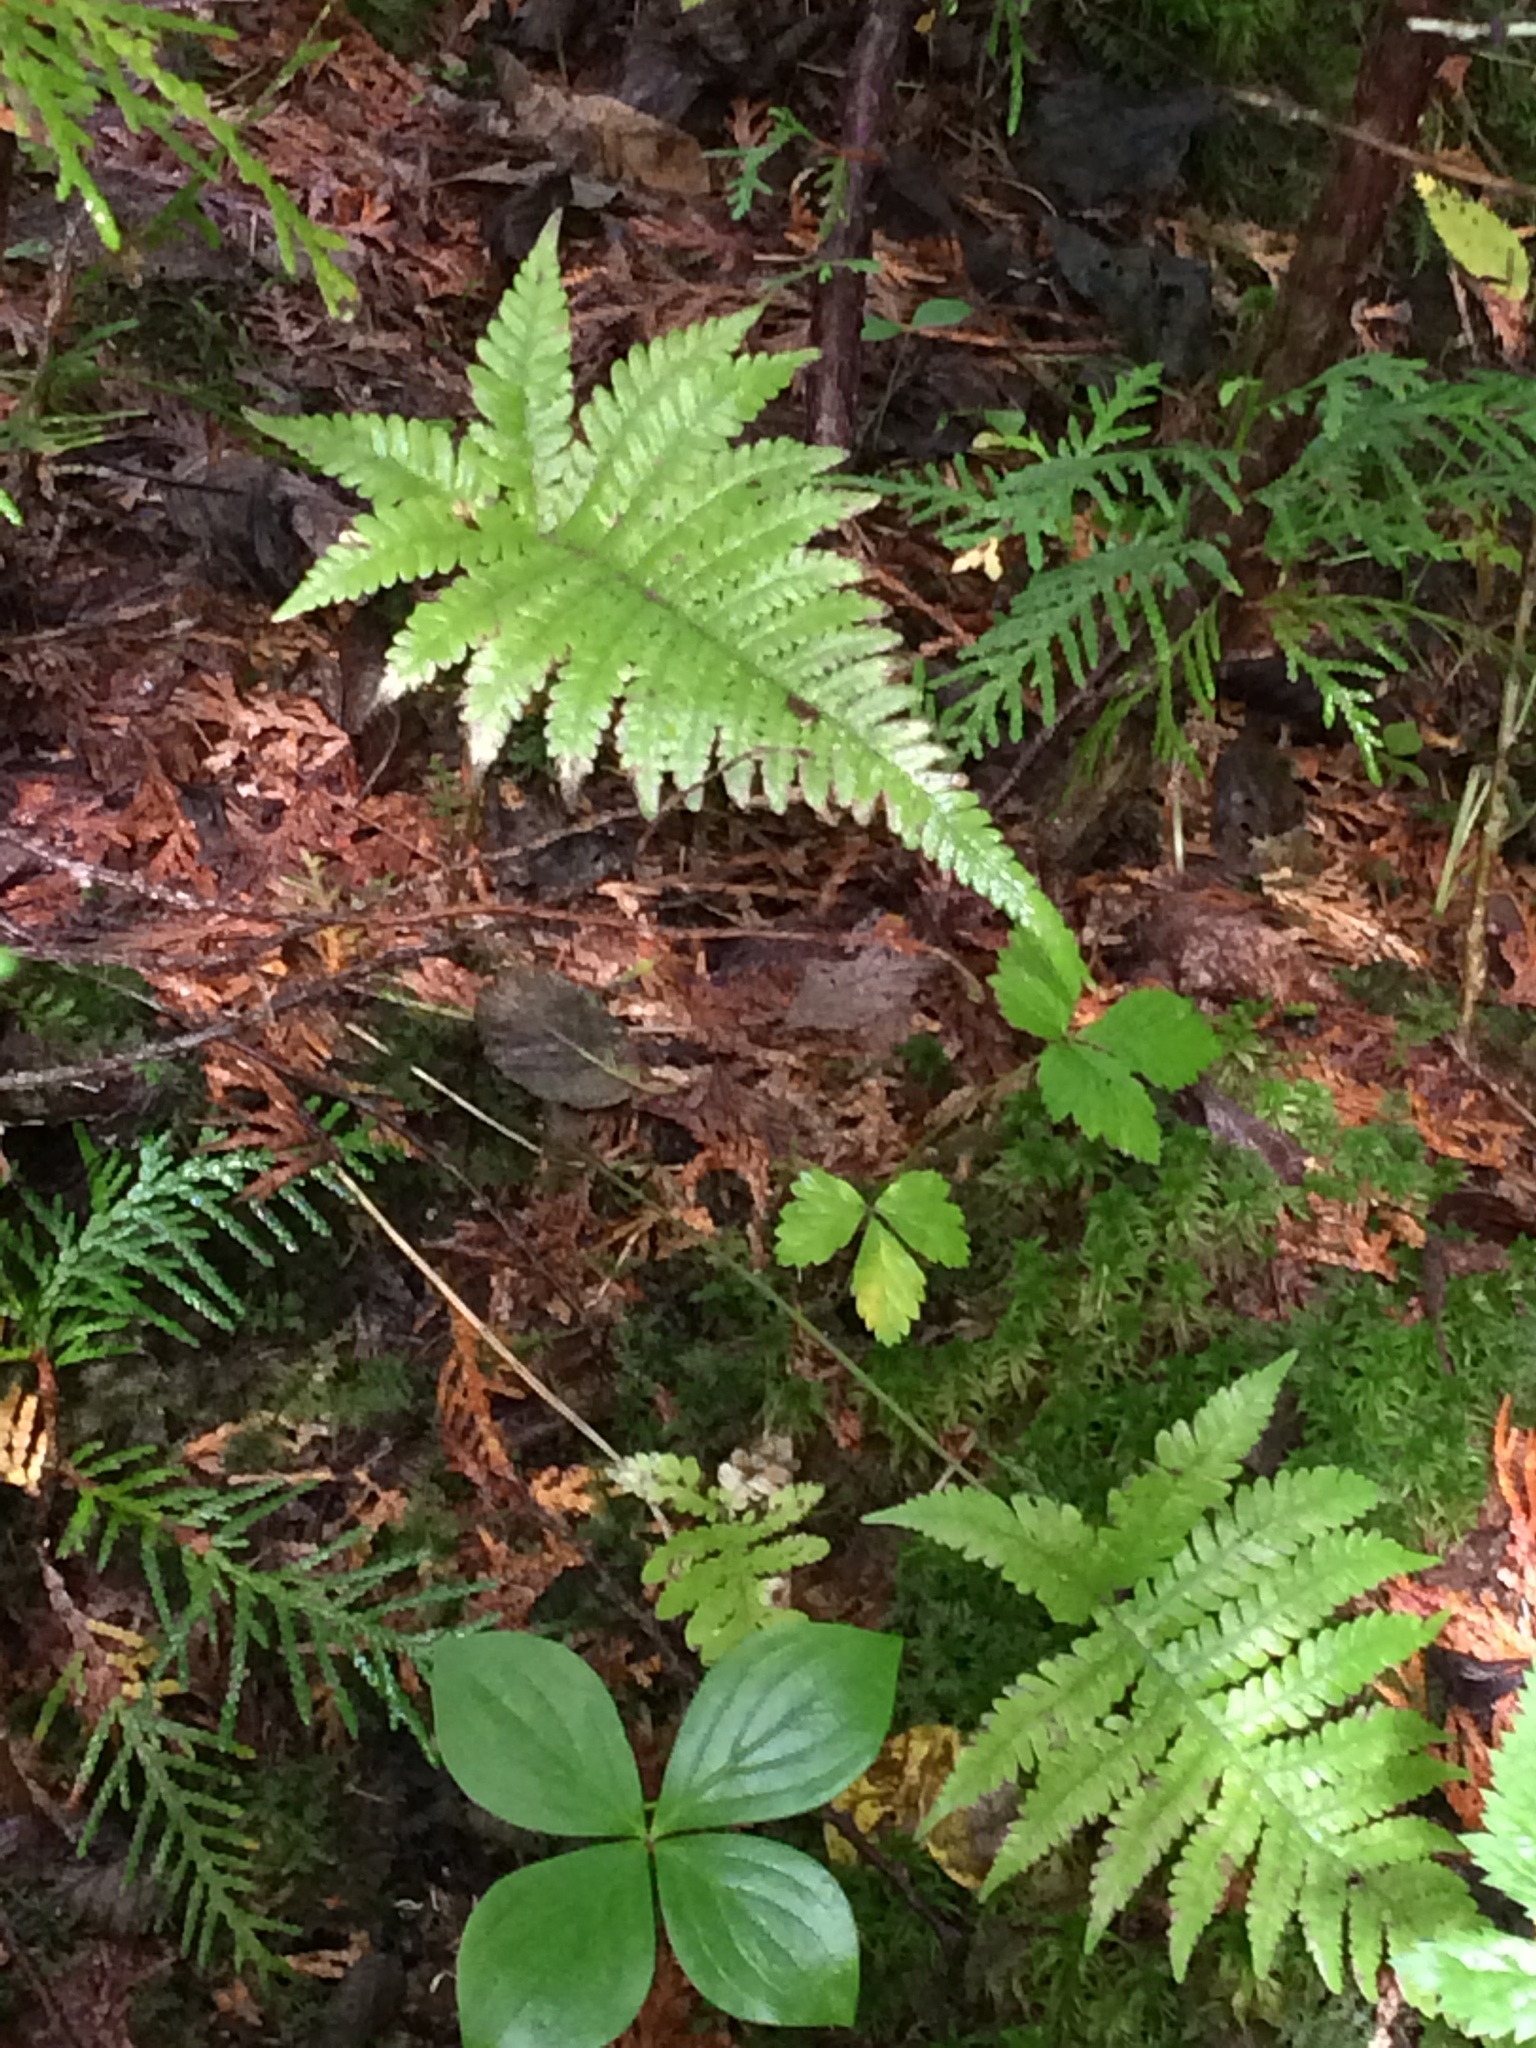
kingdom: Plantae
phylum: Tracheophyta
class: Polypodiopsida
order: Polypodiales
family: Thelypteridaceae
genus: Phegopteris
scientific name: Phegopteris connectilis
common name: Beech fern
